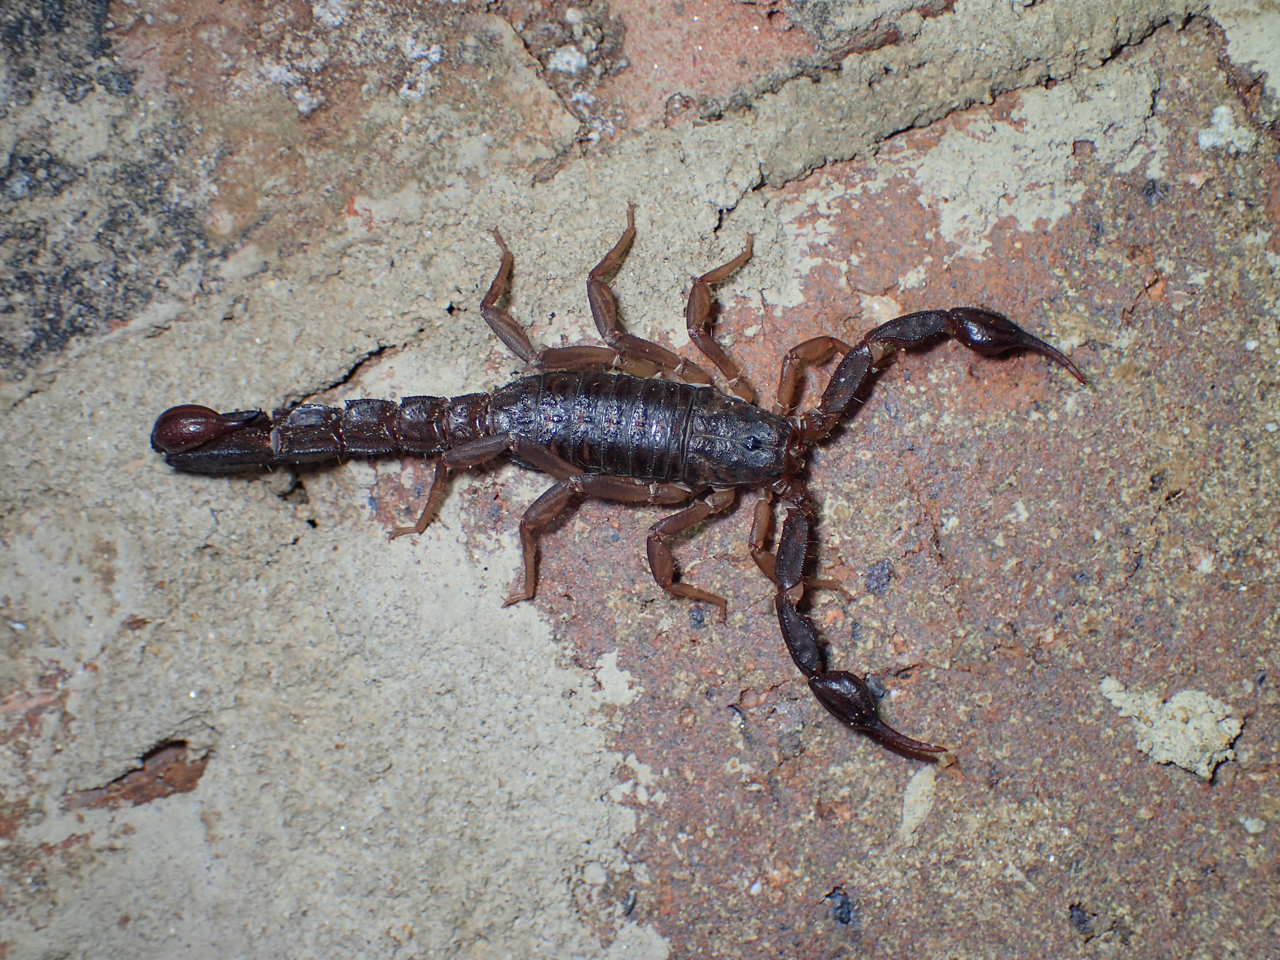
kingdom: Animalia
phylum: Arthropoda
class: Arachnida
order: Scorpiones
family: Vaejovidae
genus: Vaejovis
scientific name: Vaejovis carolinianus
